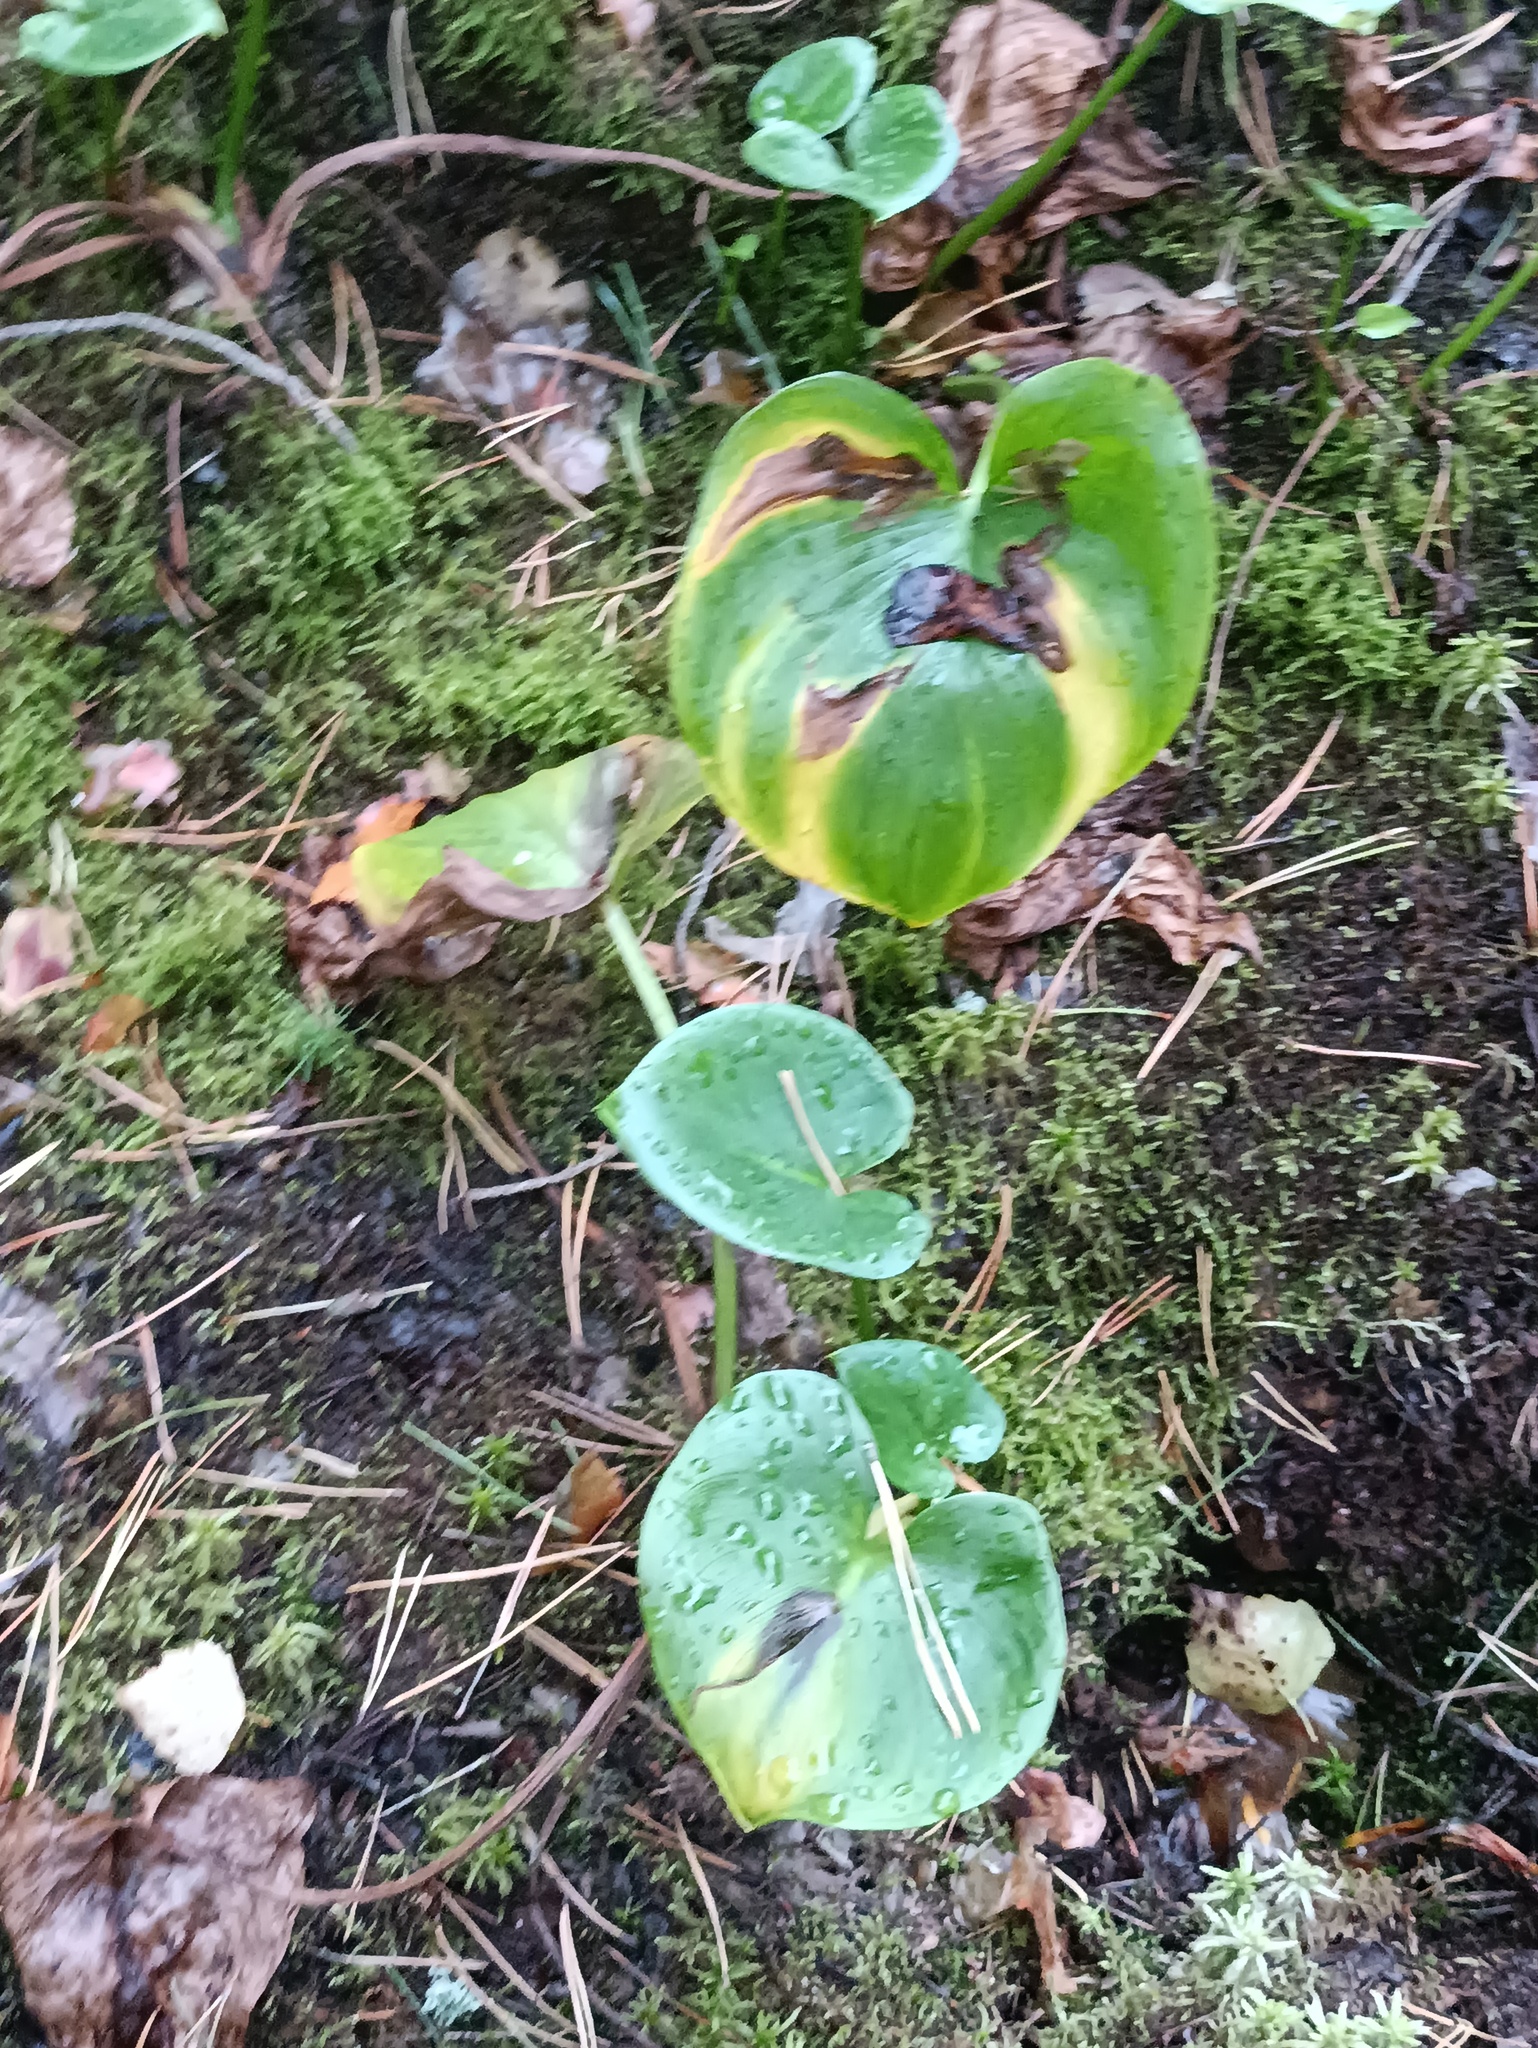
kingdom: Plantae
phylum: Tracheophyta
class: Liliopsida
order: Alismatales
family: Araceae
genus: Calla
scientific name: Calla palustris
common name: Bog arum
